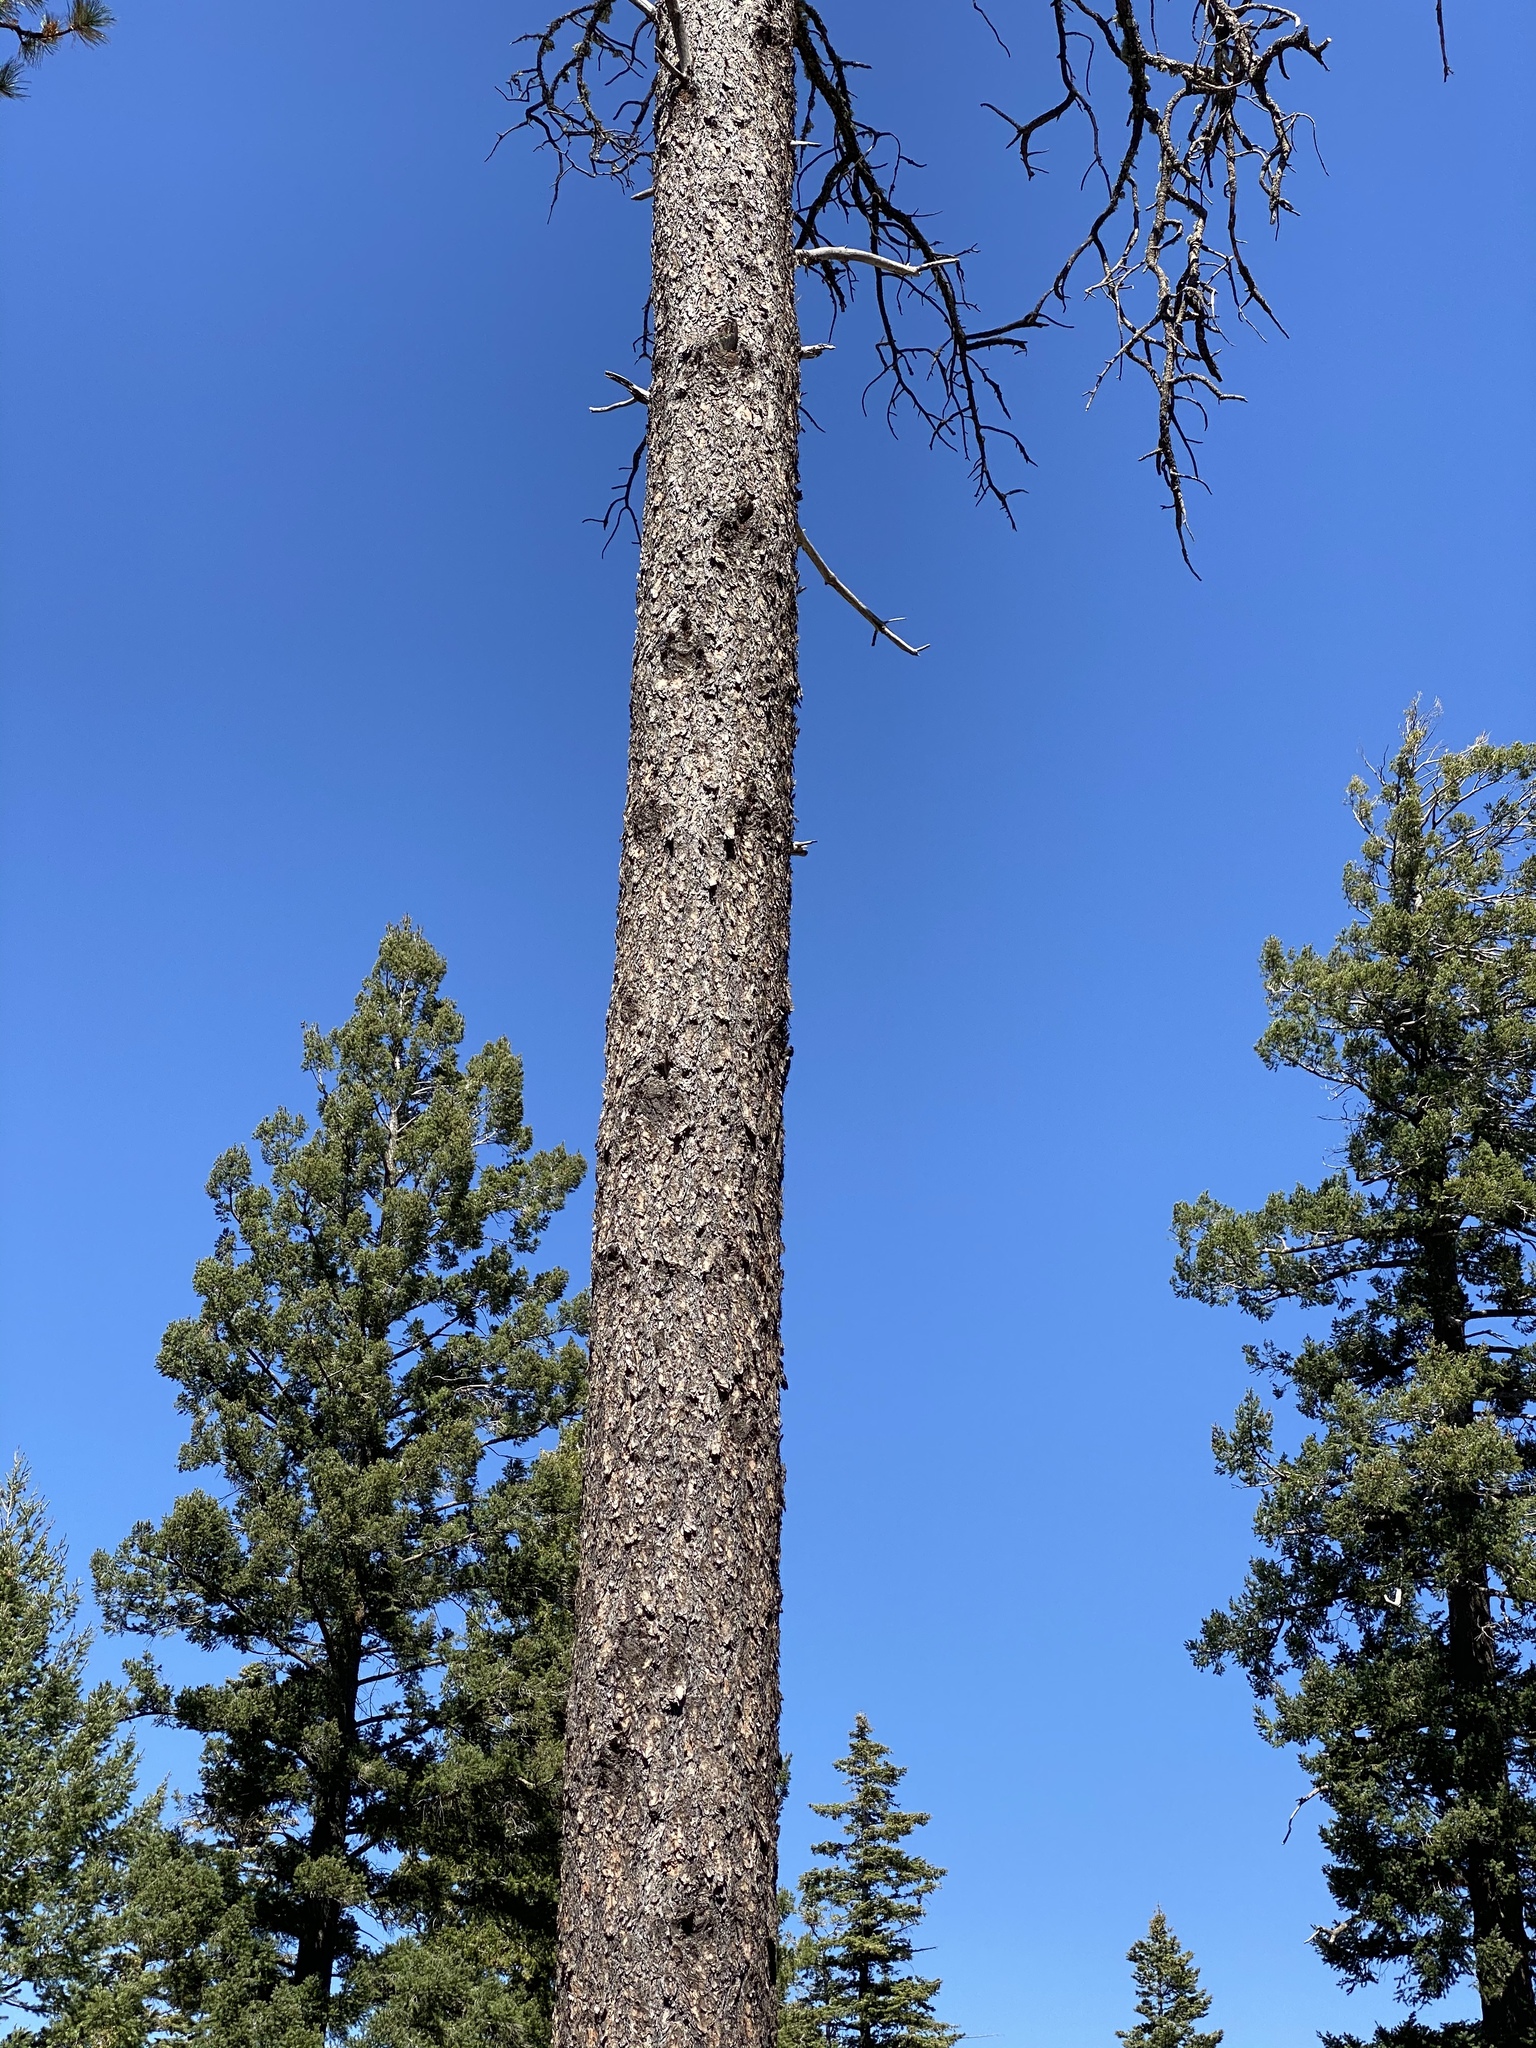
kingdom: Plantae
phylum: Tracheophyta
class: Pinopsida
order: Pinales
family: Pinaceae
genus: Pinus
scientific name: Pinus ponderosa
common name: Western yellow-pine
